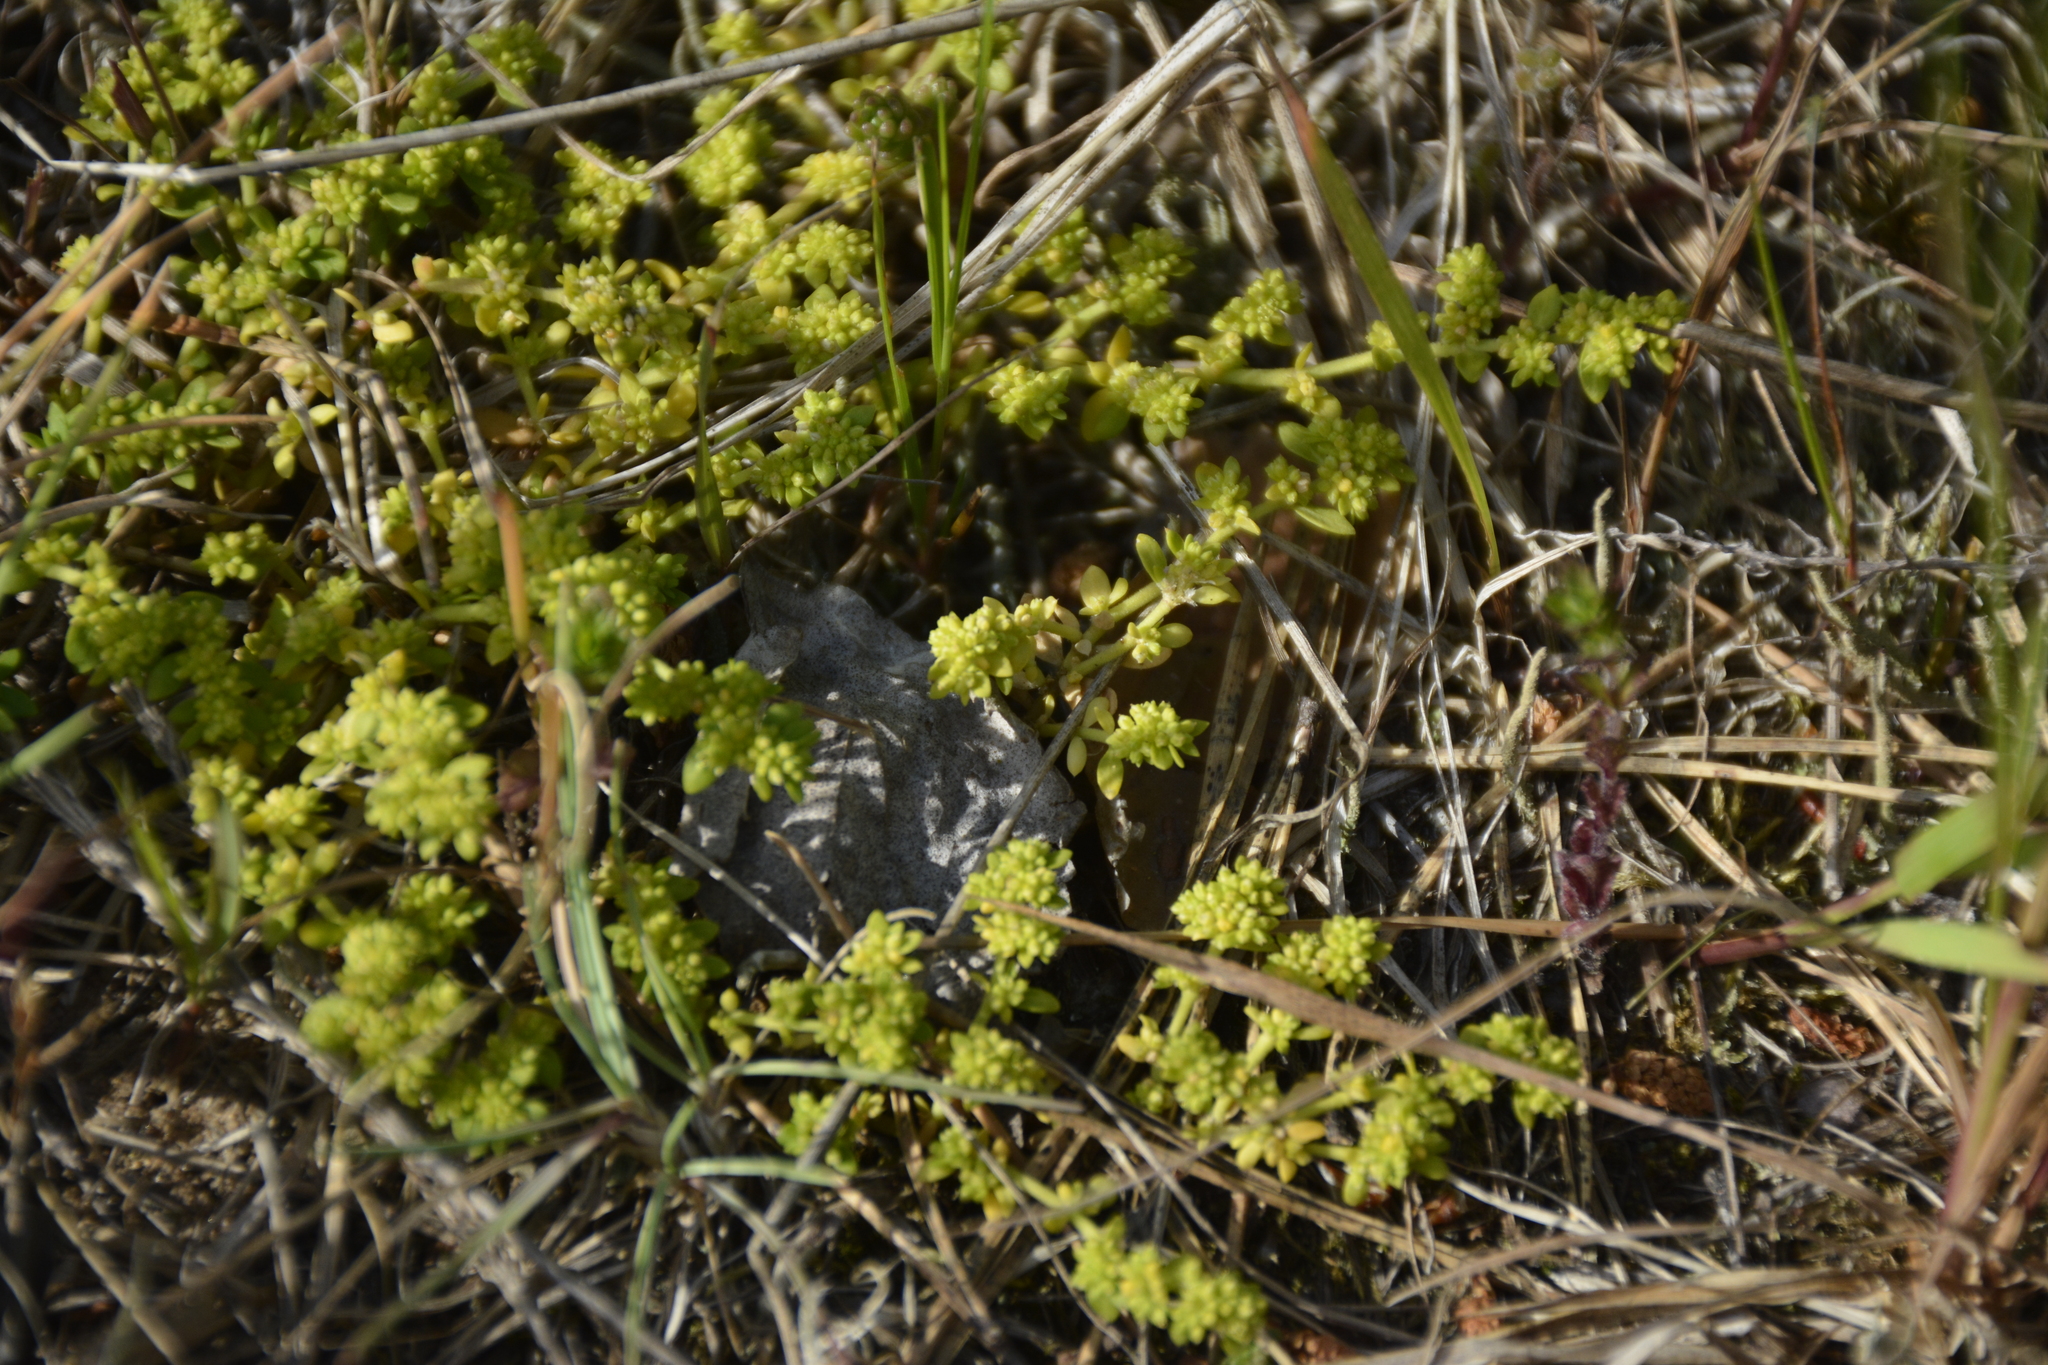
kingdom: Plantae
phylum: Tracheophyta
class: Magnoliopsida
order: Caryophyllales
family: Caryophyllaceae
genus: Herniaria
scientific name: Herniaria glabra
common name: Smooth rupturewort
